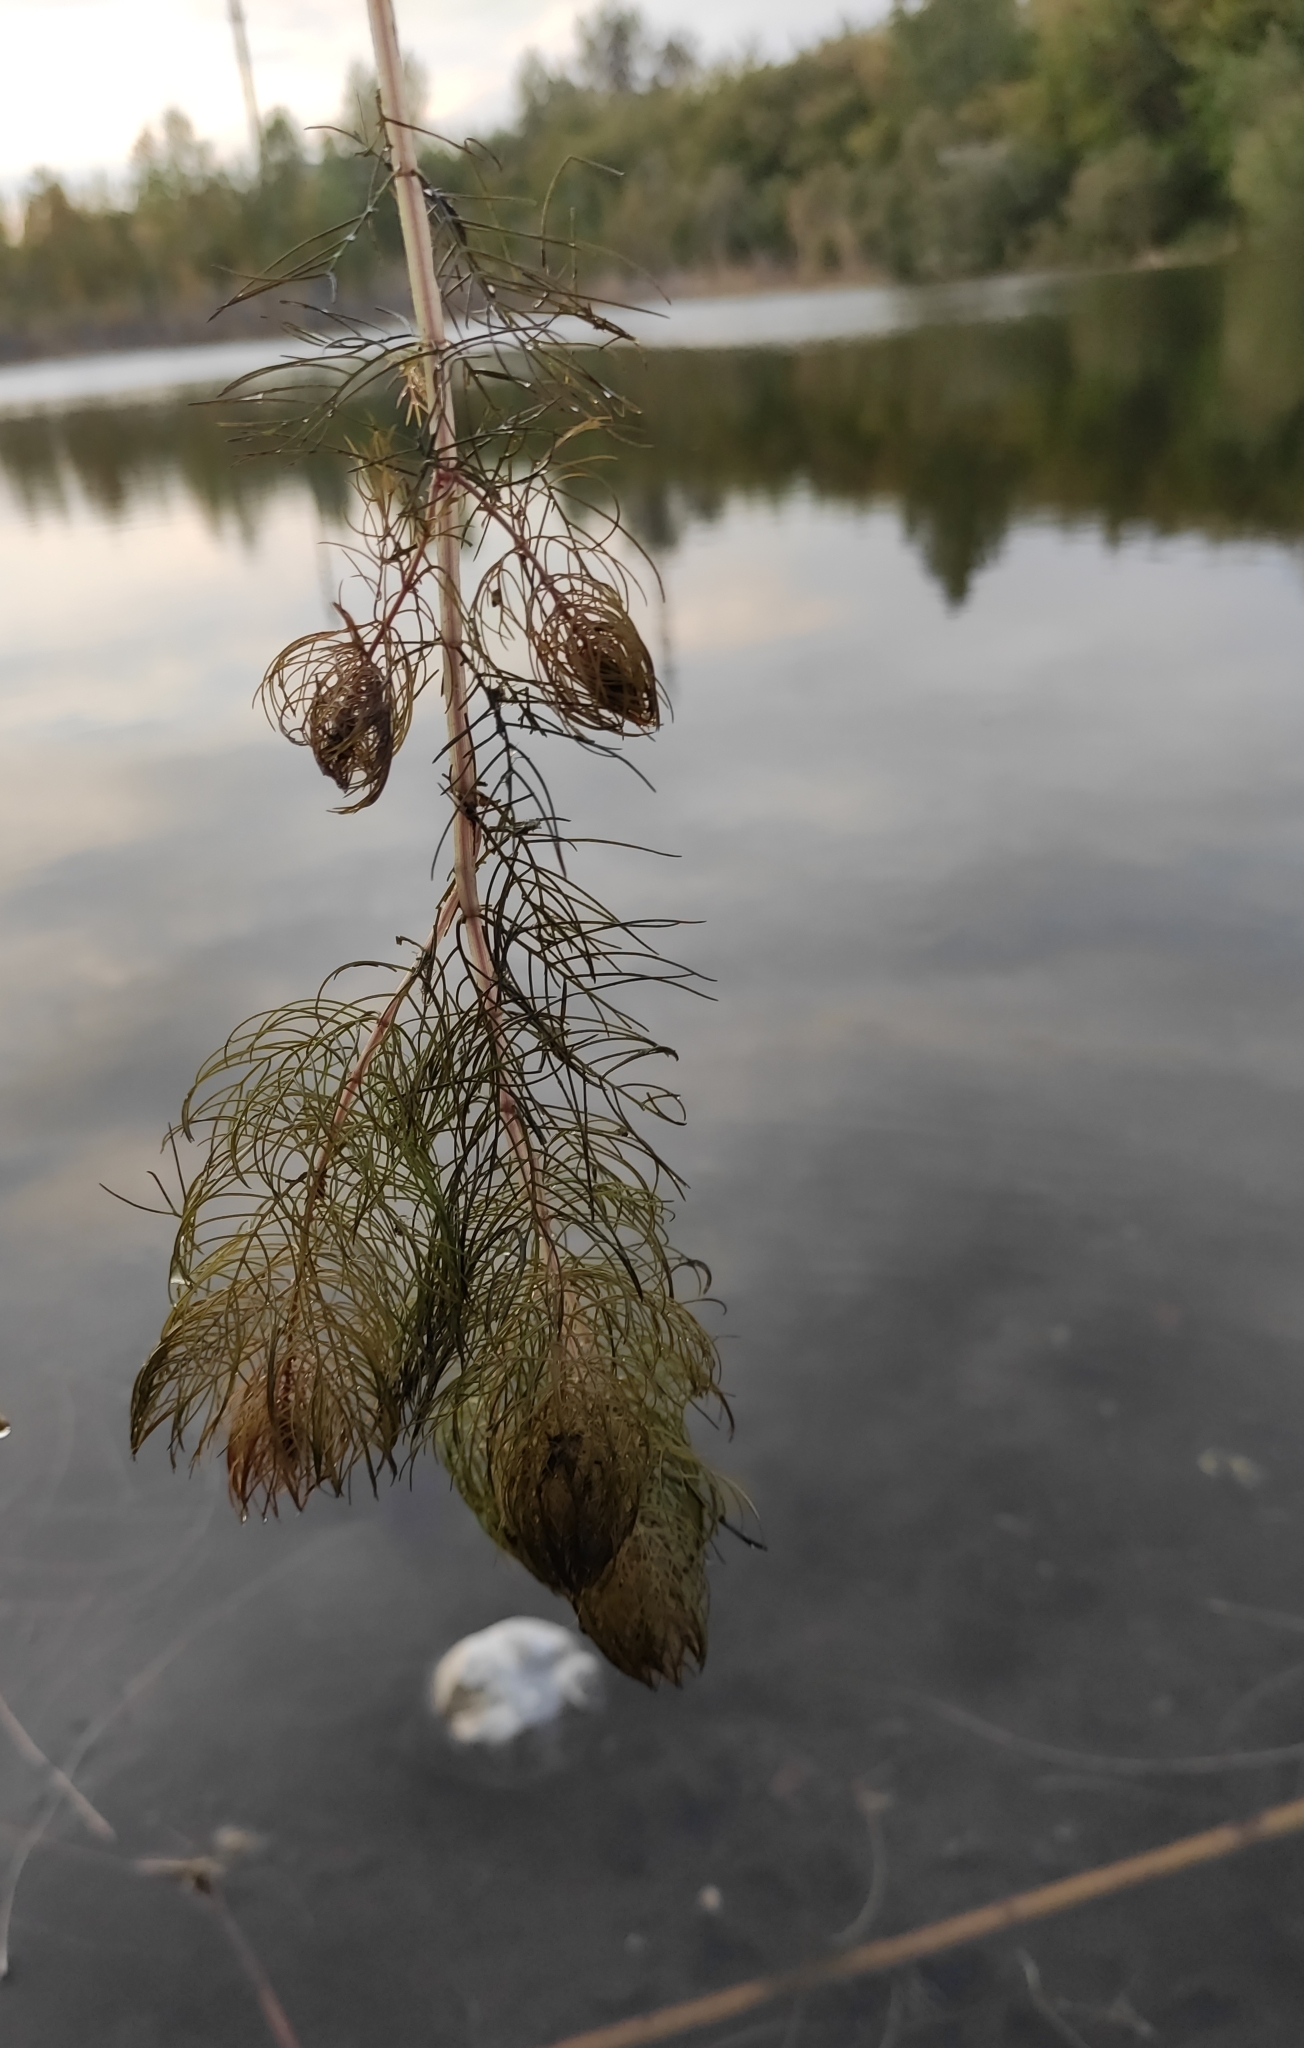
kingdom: Plantae
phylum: Tracheophyta
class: Magnoliopsida
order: Saxifragales
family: Haloragaceae
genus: Myriophyllum
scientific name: Myriophyllum sibiricum
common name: Siberian water-milfoil
